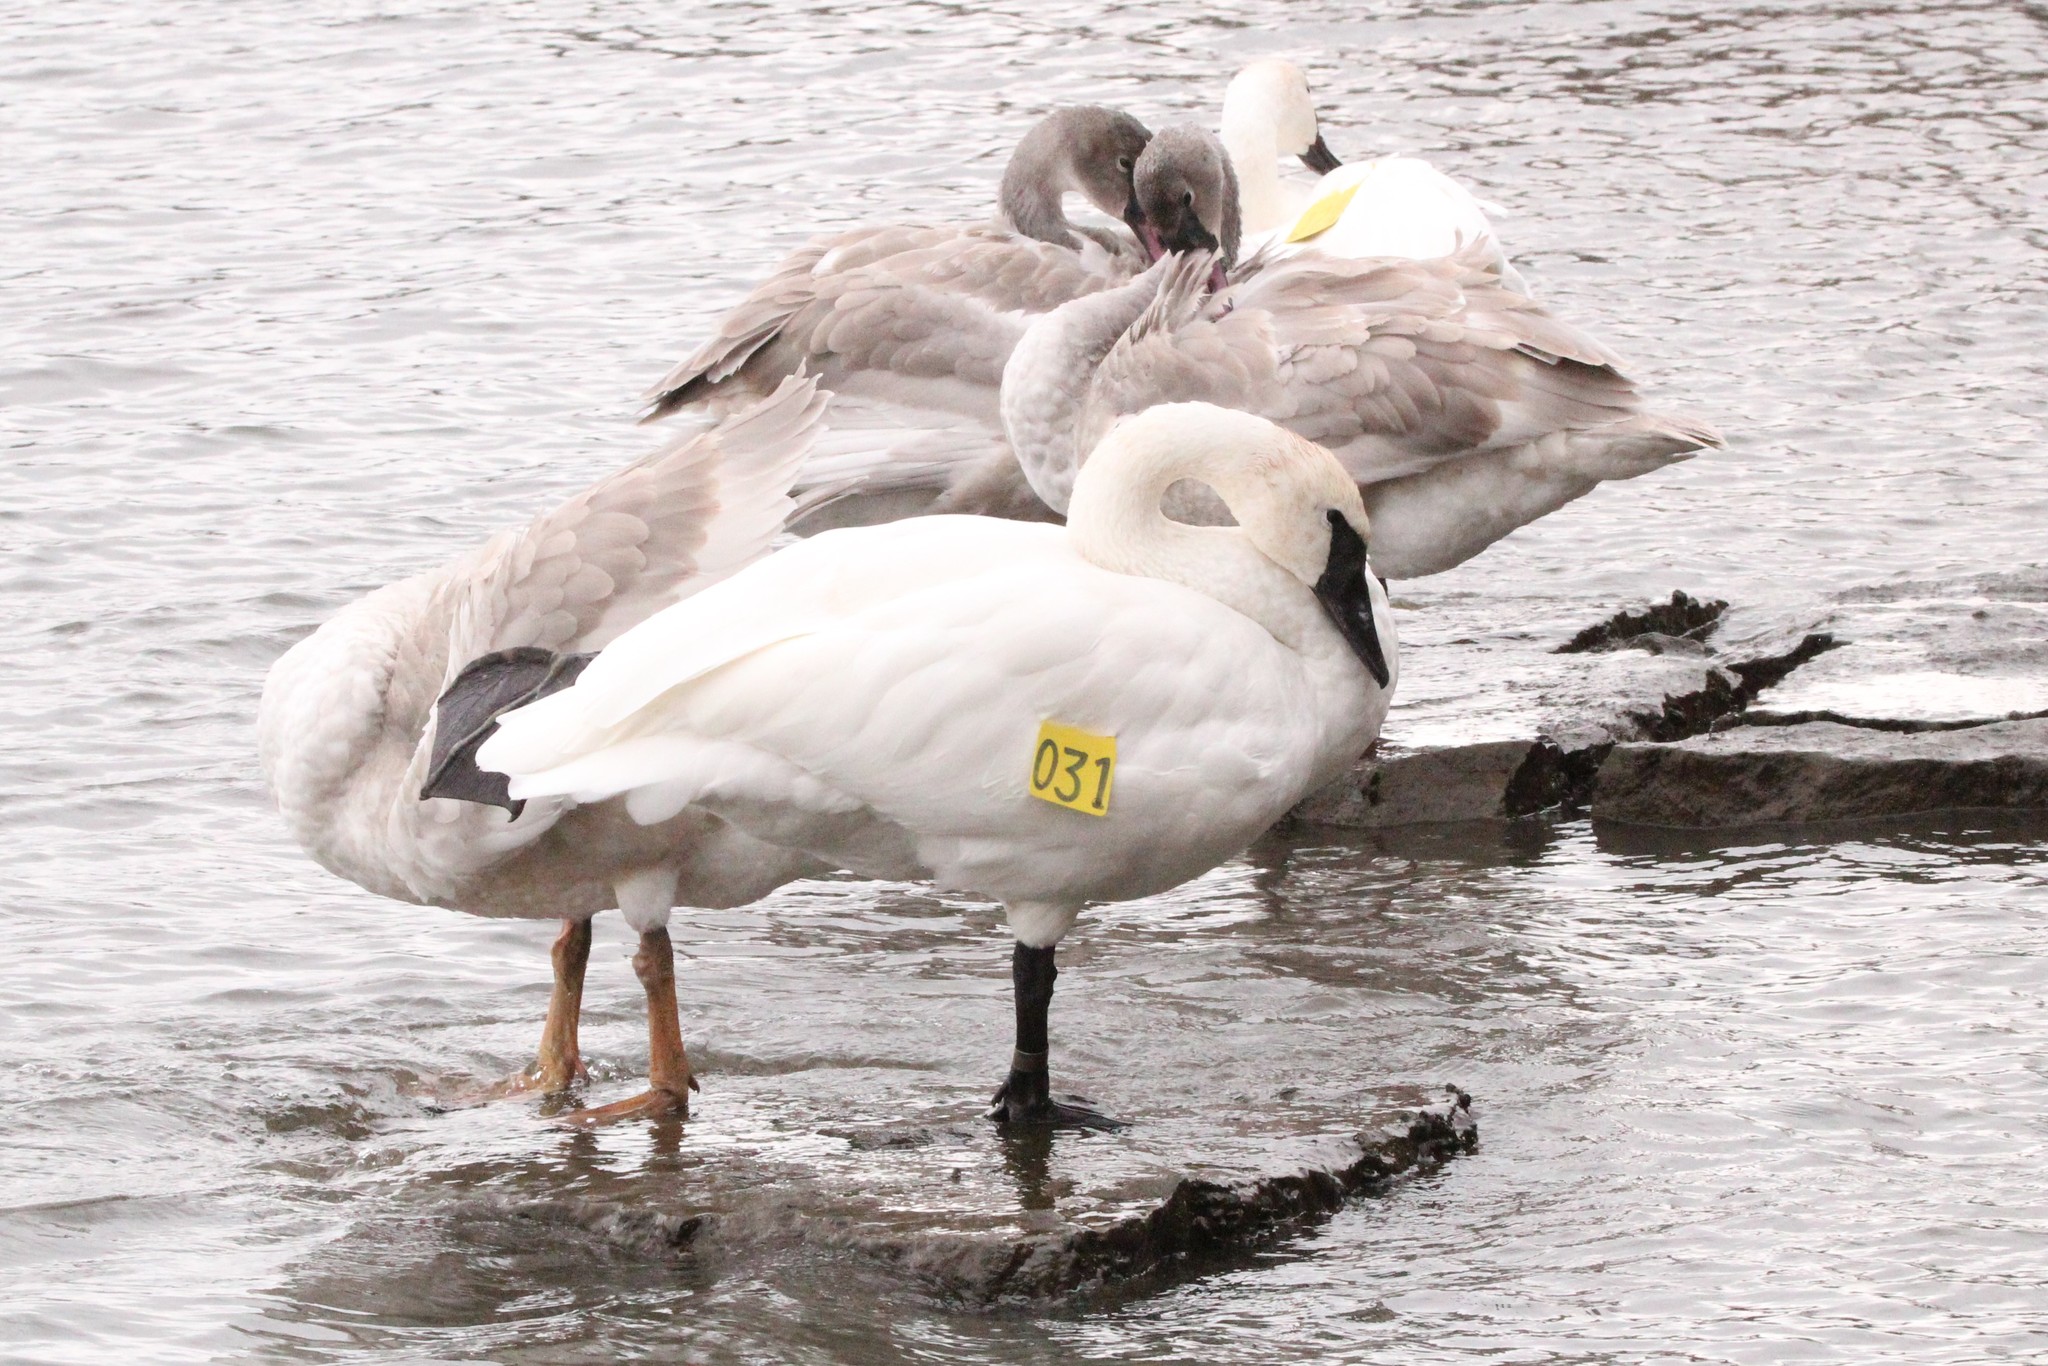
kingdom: Animalia
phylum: Chordata
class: Aves
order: Anseriformes
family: Anatidae
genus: Cygnus
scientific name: Cygnus buccinator
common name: Trumpeter swan
